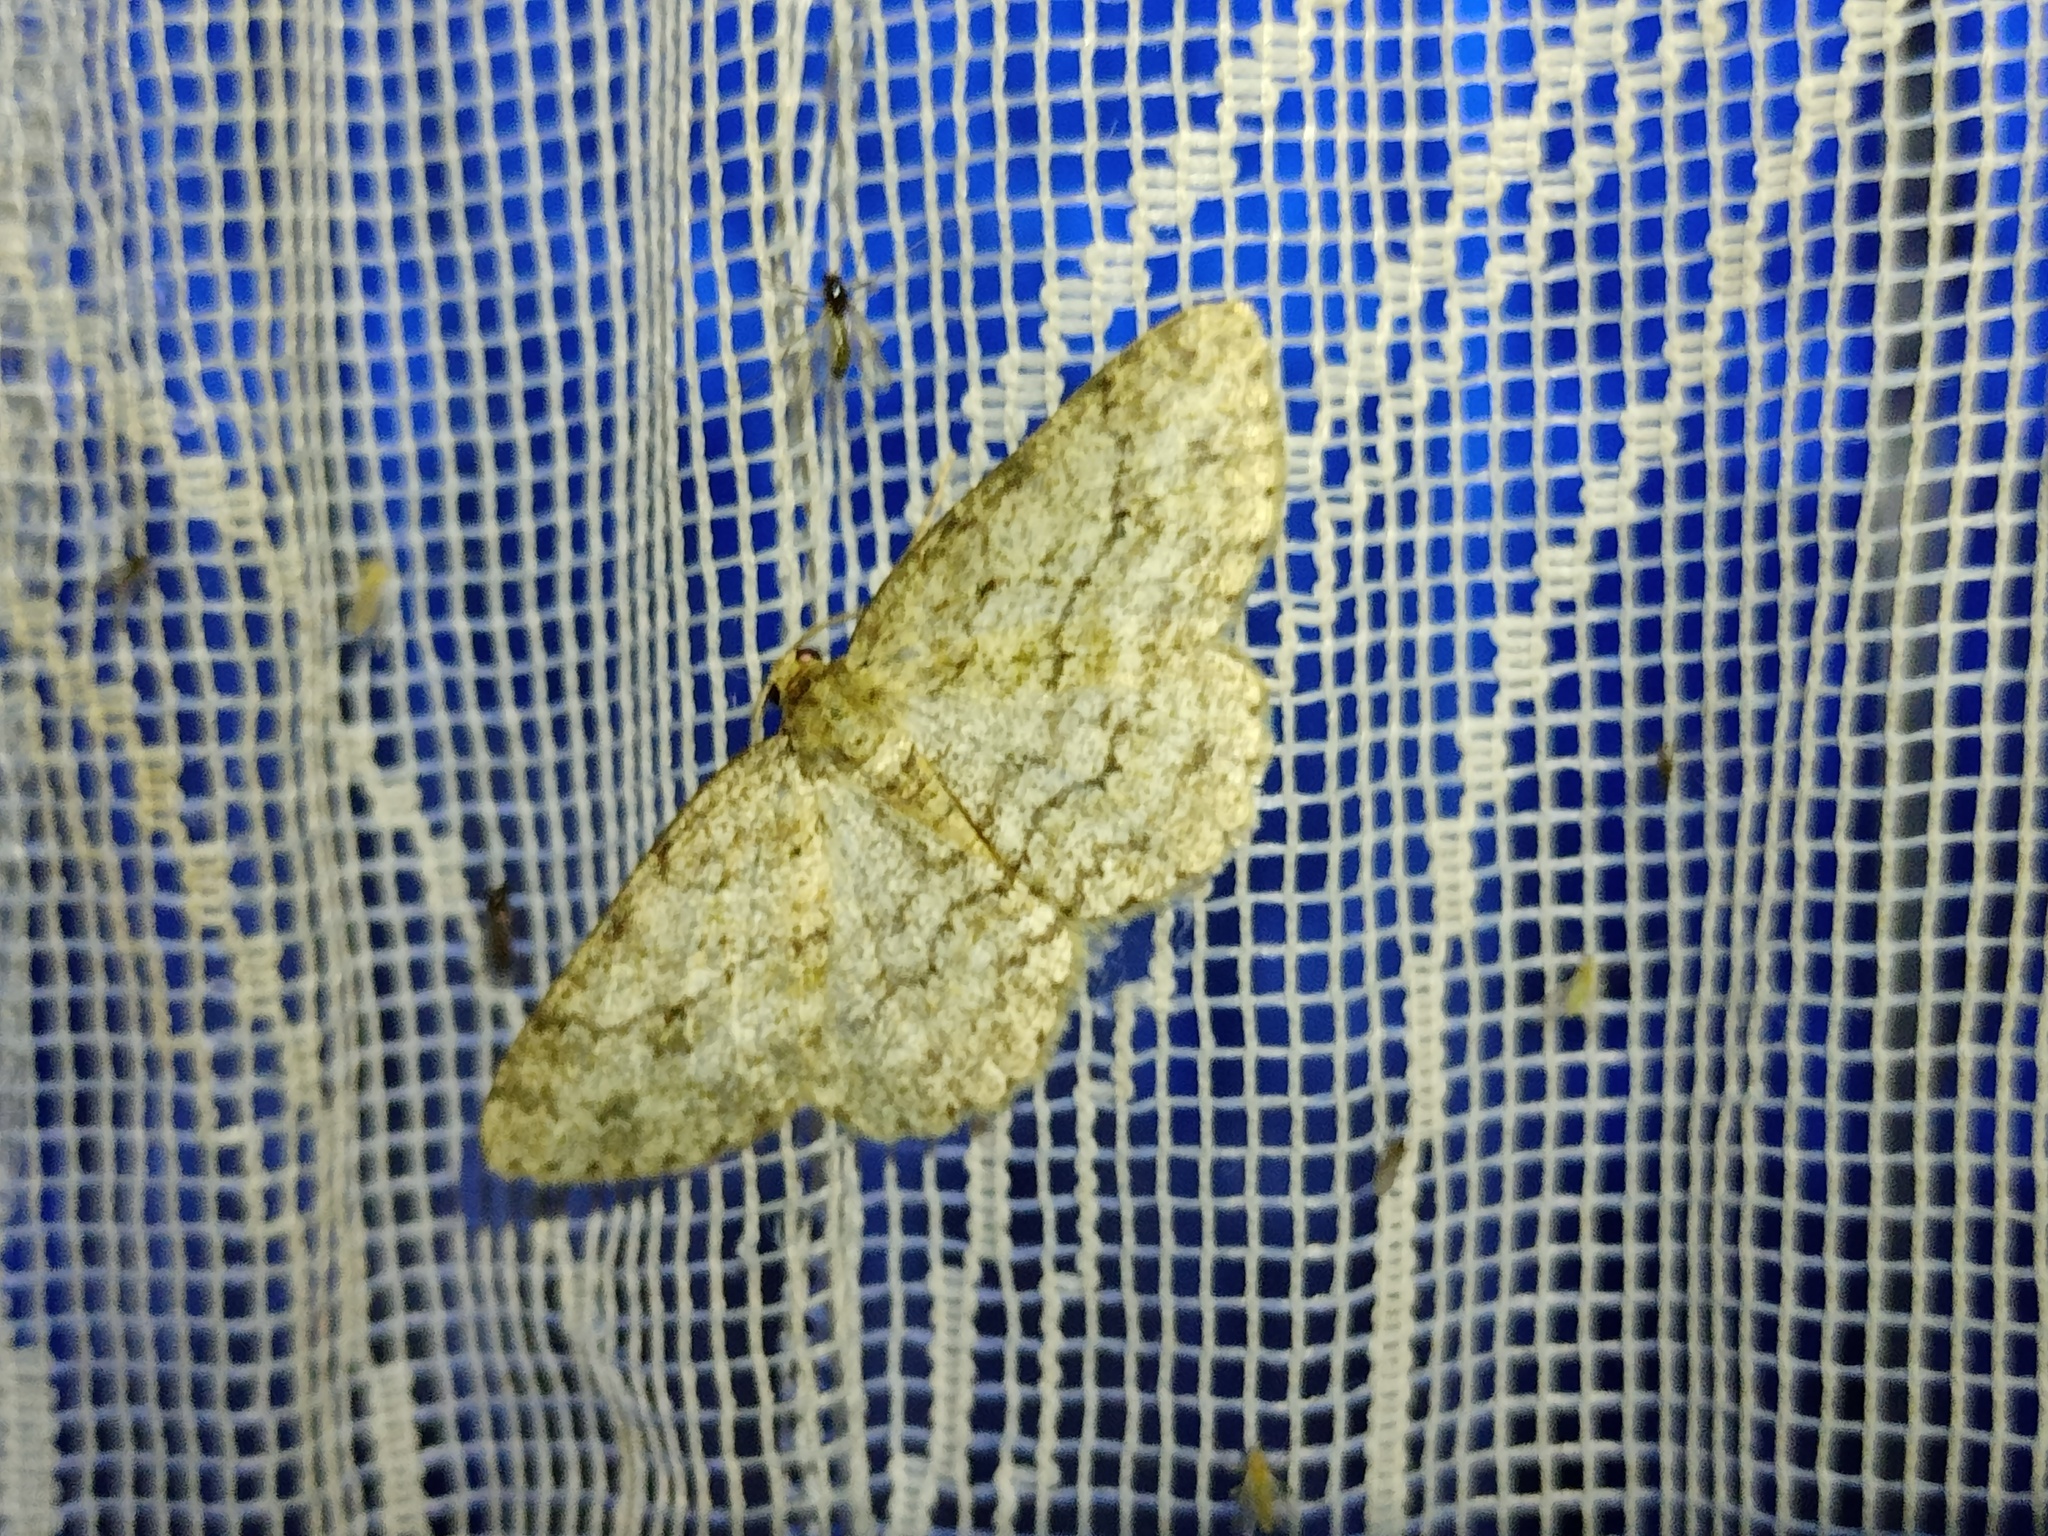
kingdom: Animalia
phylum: Arthropoda
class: Insecta
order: Lepidoptera
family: Geometridae
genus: Ectropis
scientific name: Ectropis crepuscularia
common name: Engrailed
